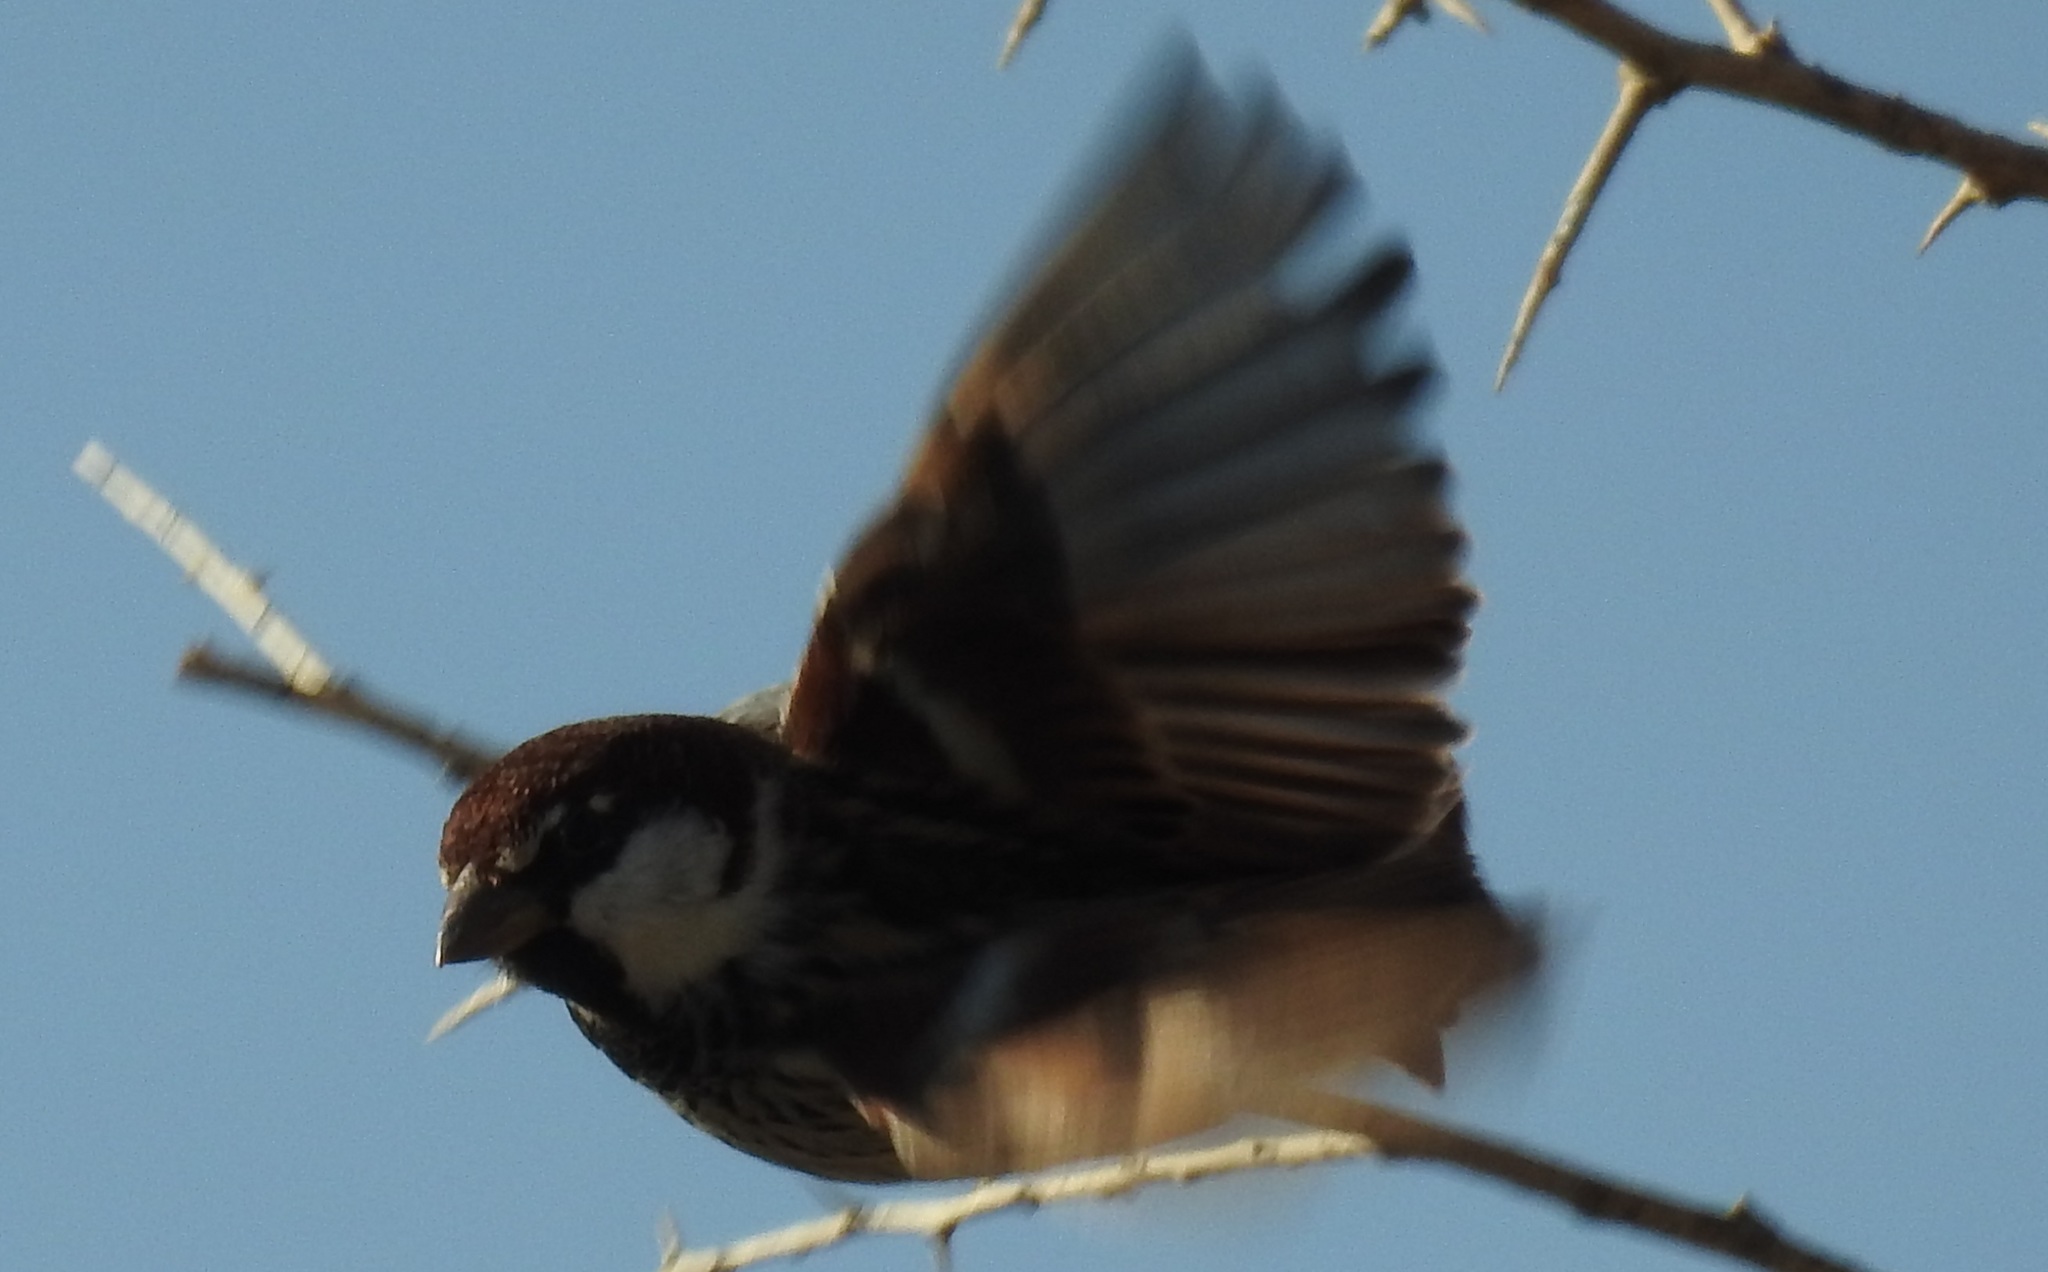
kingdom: Animalia
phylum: Chordata
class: Aves
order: Passeriformes
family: Passeridae
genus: Passer
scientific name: Passer hispaniolensis
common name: Spanish sparrow
